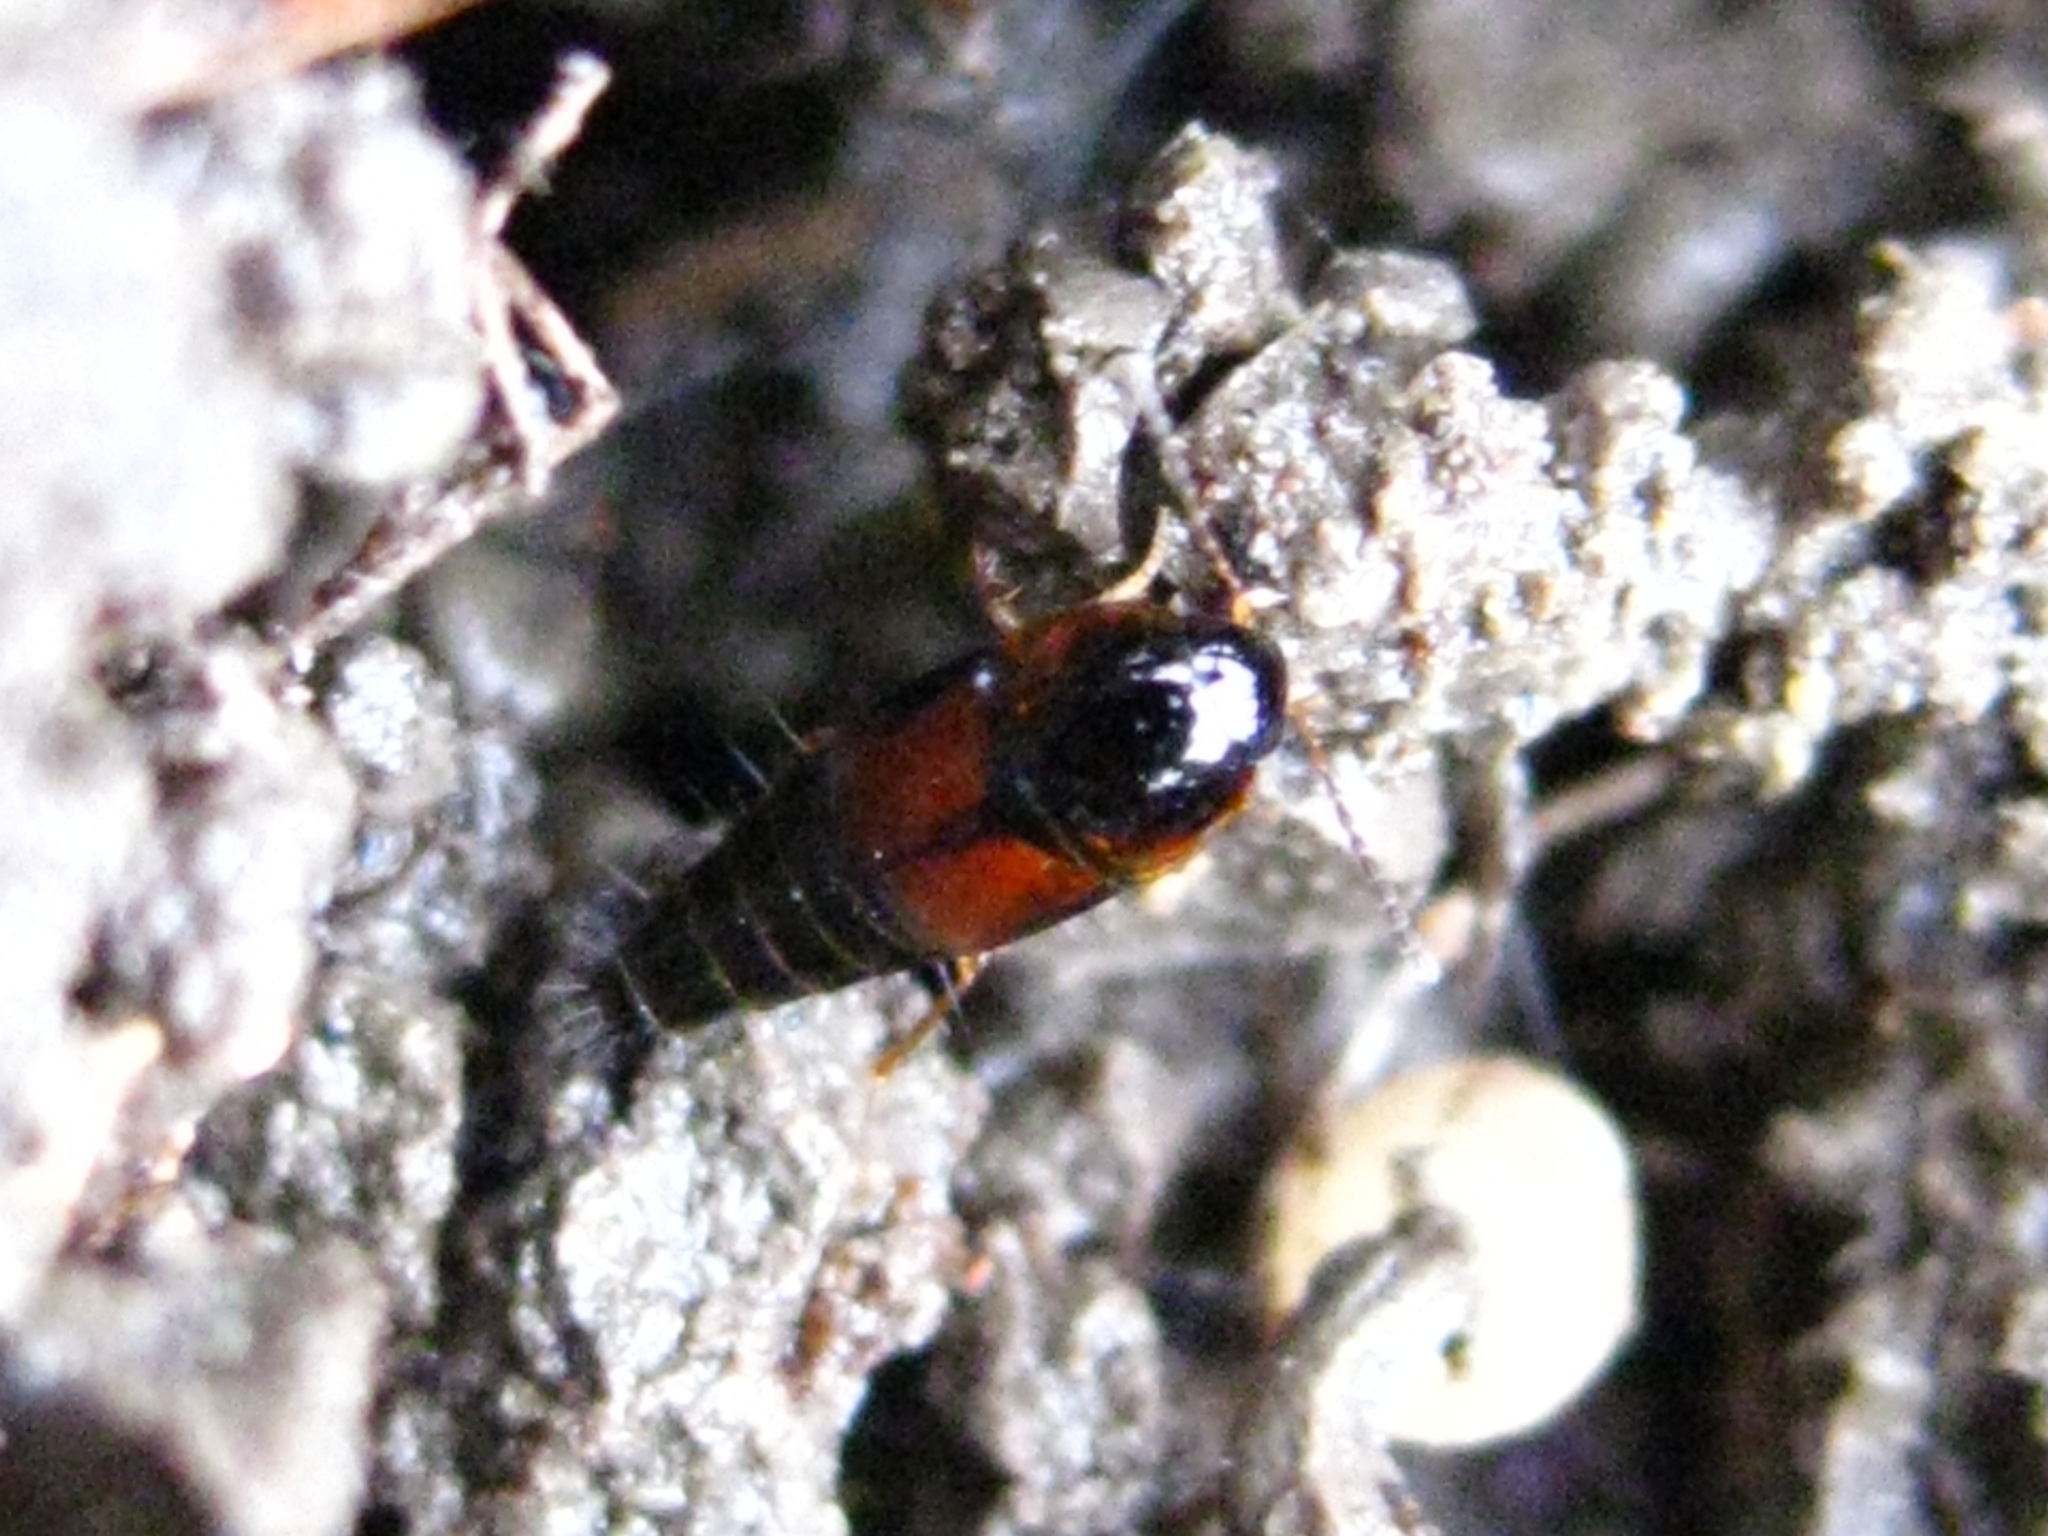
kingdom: Animalia
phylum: Arthropoda
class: Insecta
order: Coleoptera
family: Staphylinidae
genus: Tachyporus
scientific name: Tachyporus hypnorum
